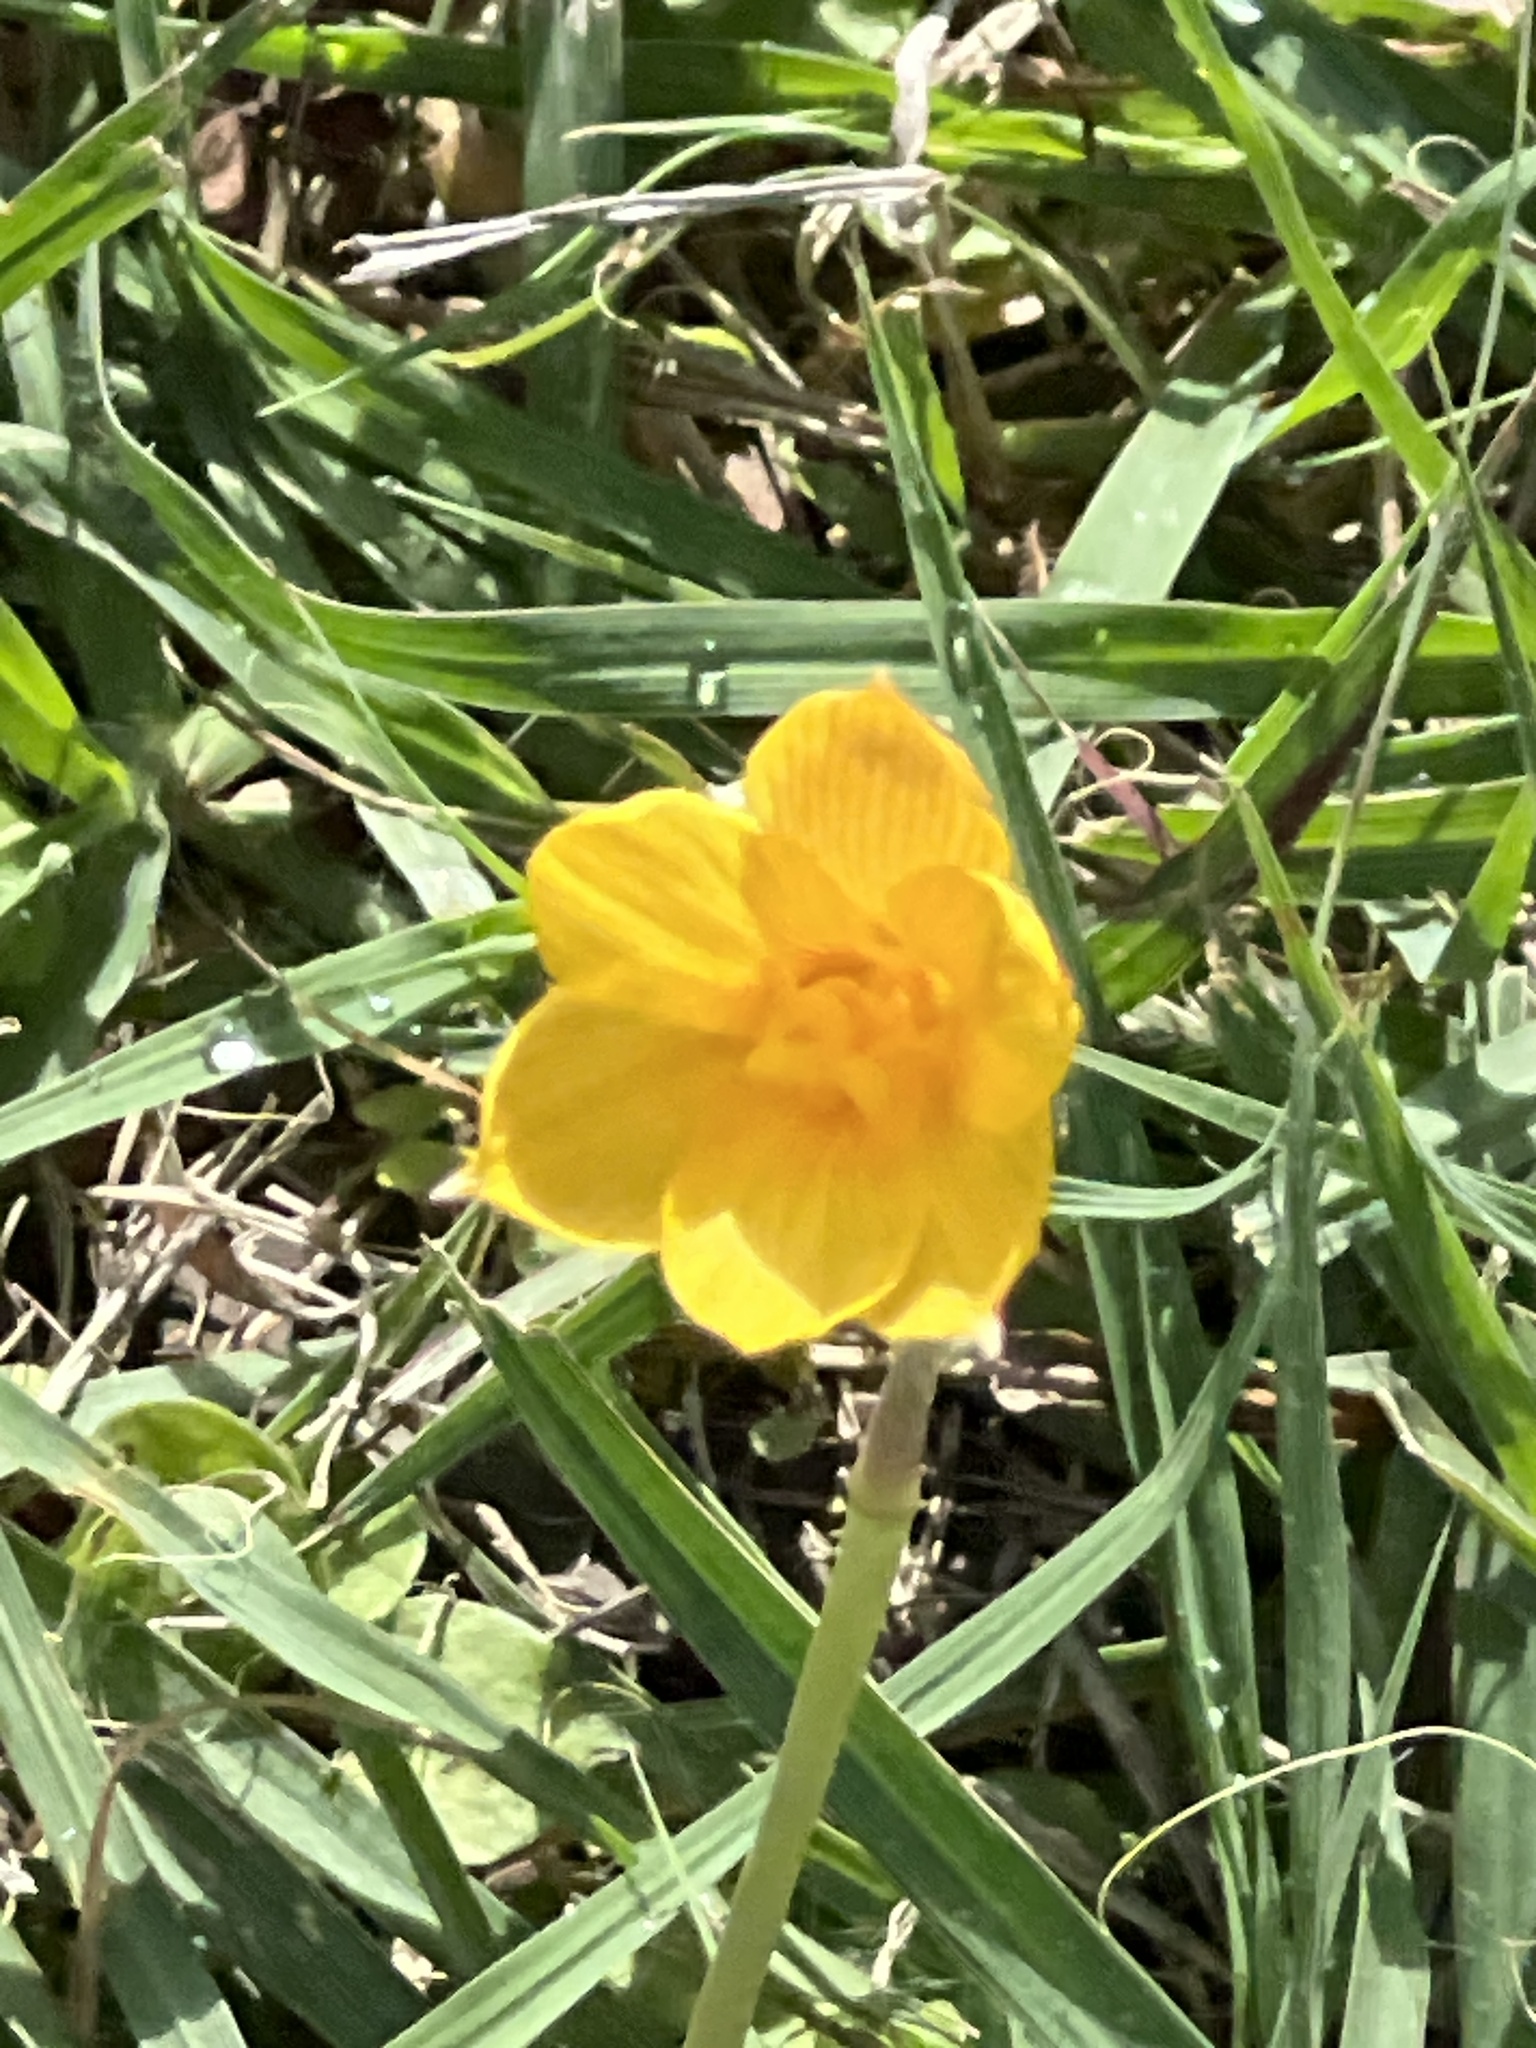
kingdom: Plantae
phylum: Tracheophyta
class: Liliopsida
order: Asparagales
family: Amaryllidaceae
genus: Zephyranthes
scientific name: Zephyranthes tubispatha
